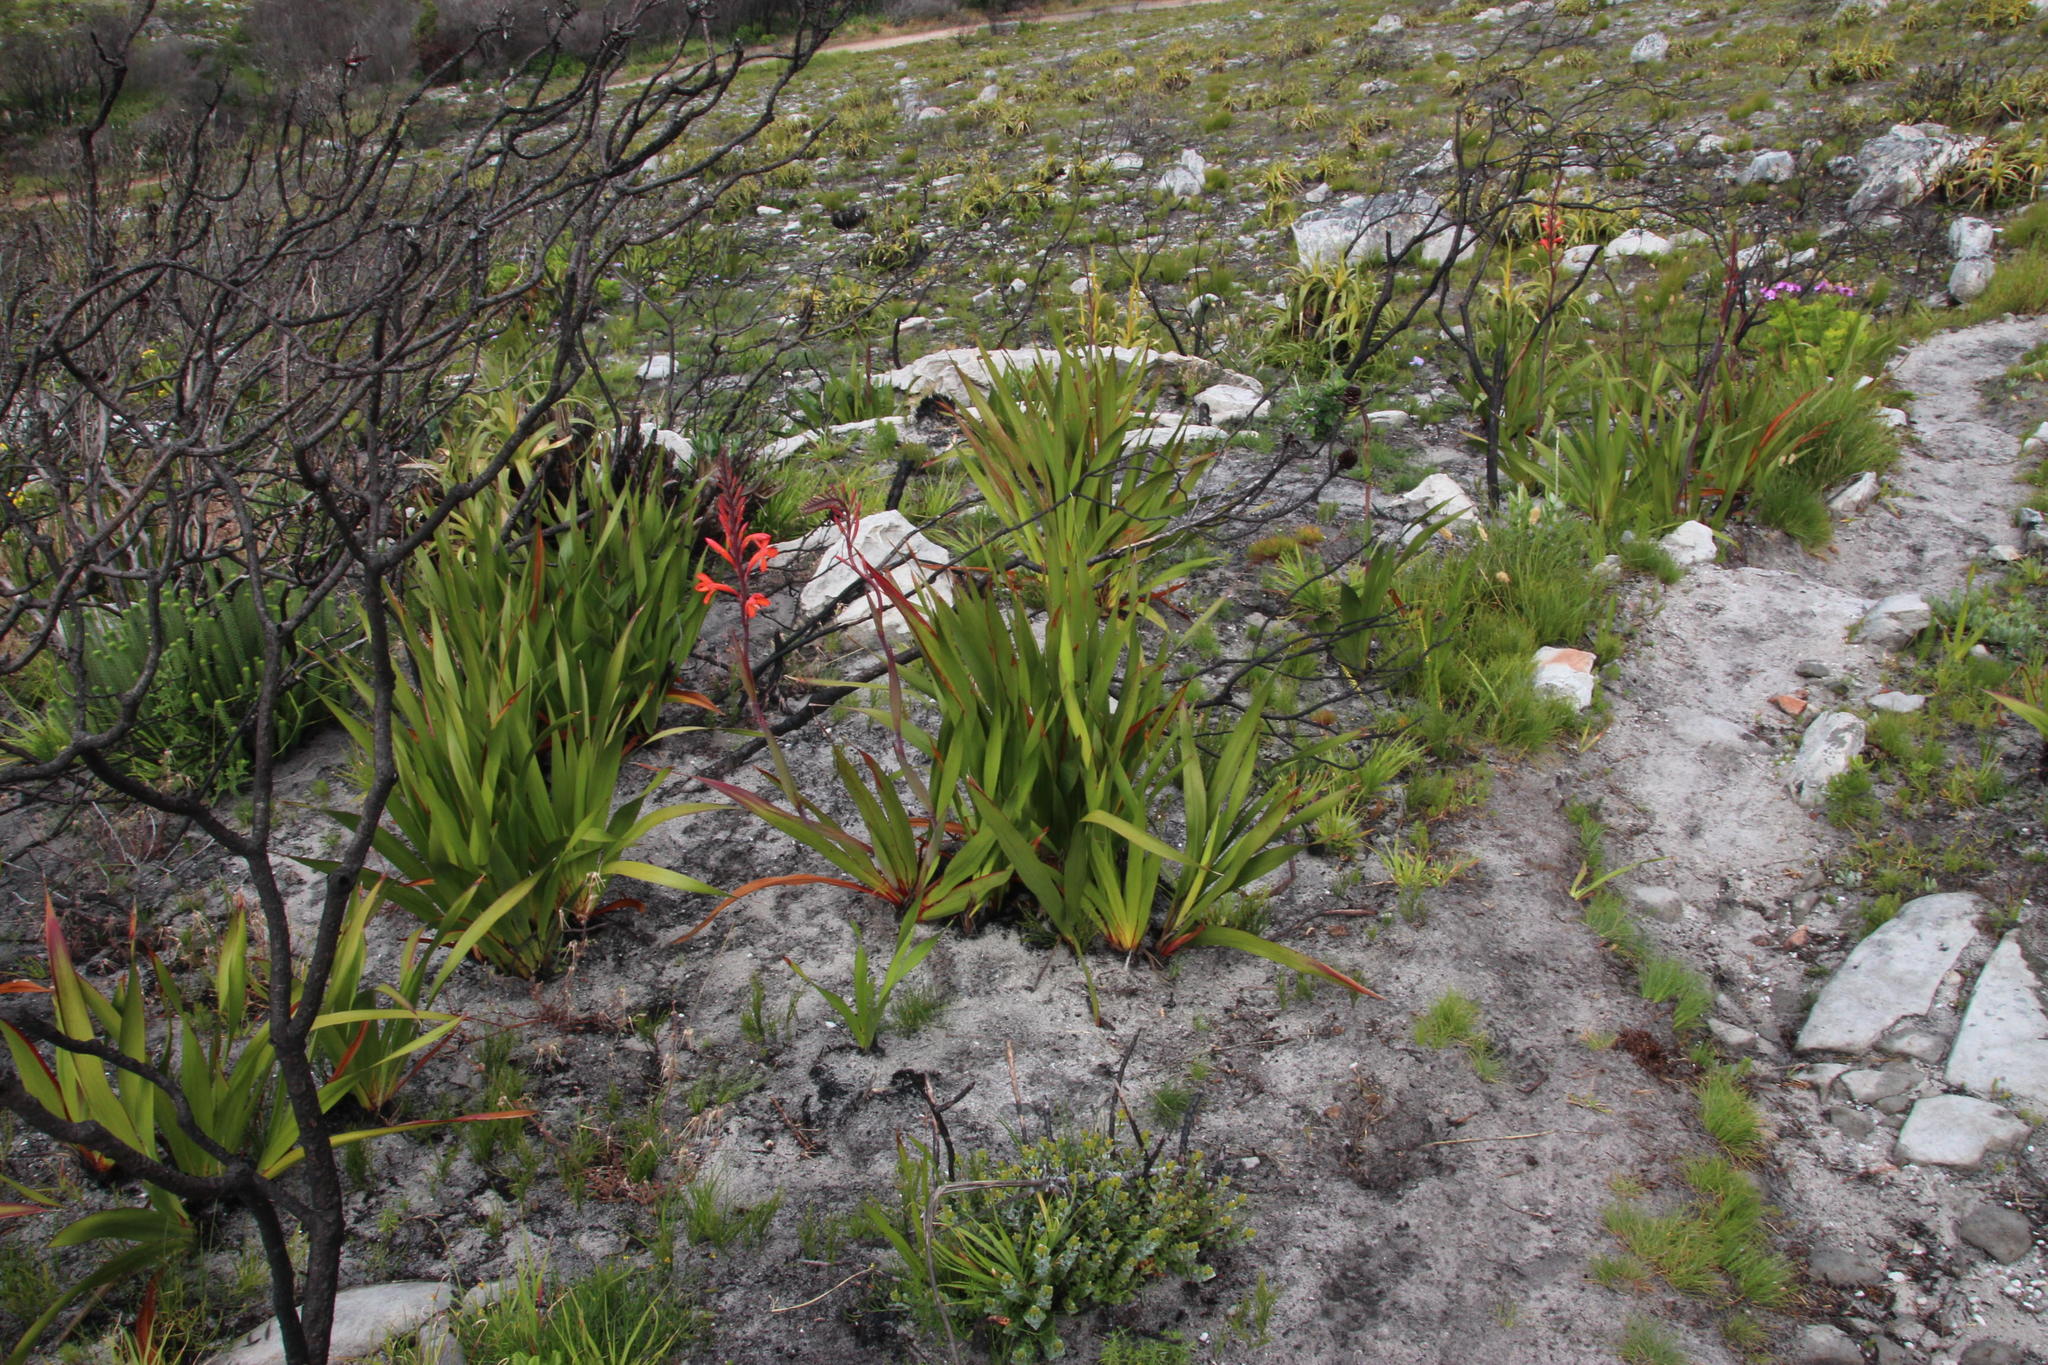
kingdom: Plantae
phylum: Tracheophyta
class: Liliopsida
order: Asparagales
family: Iridaceae
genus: Watsonia
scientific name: Watsonia tabularis
